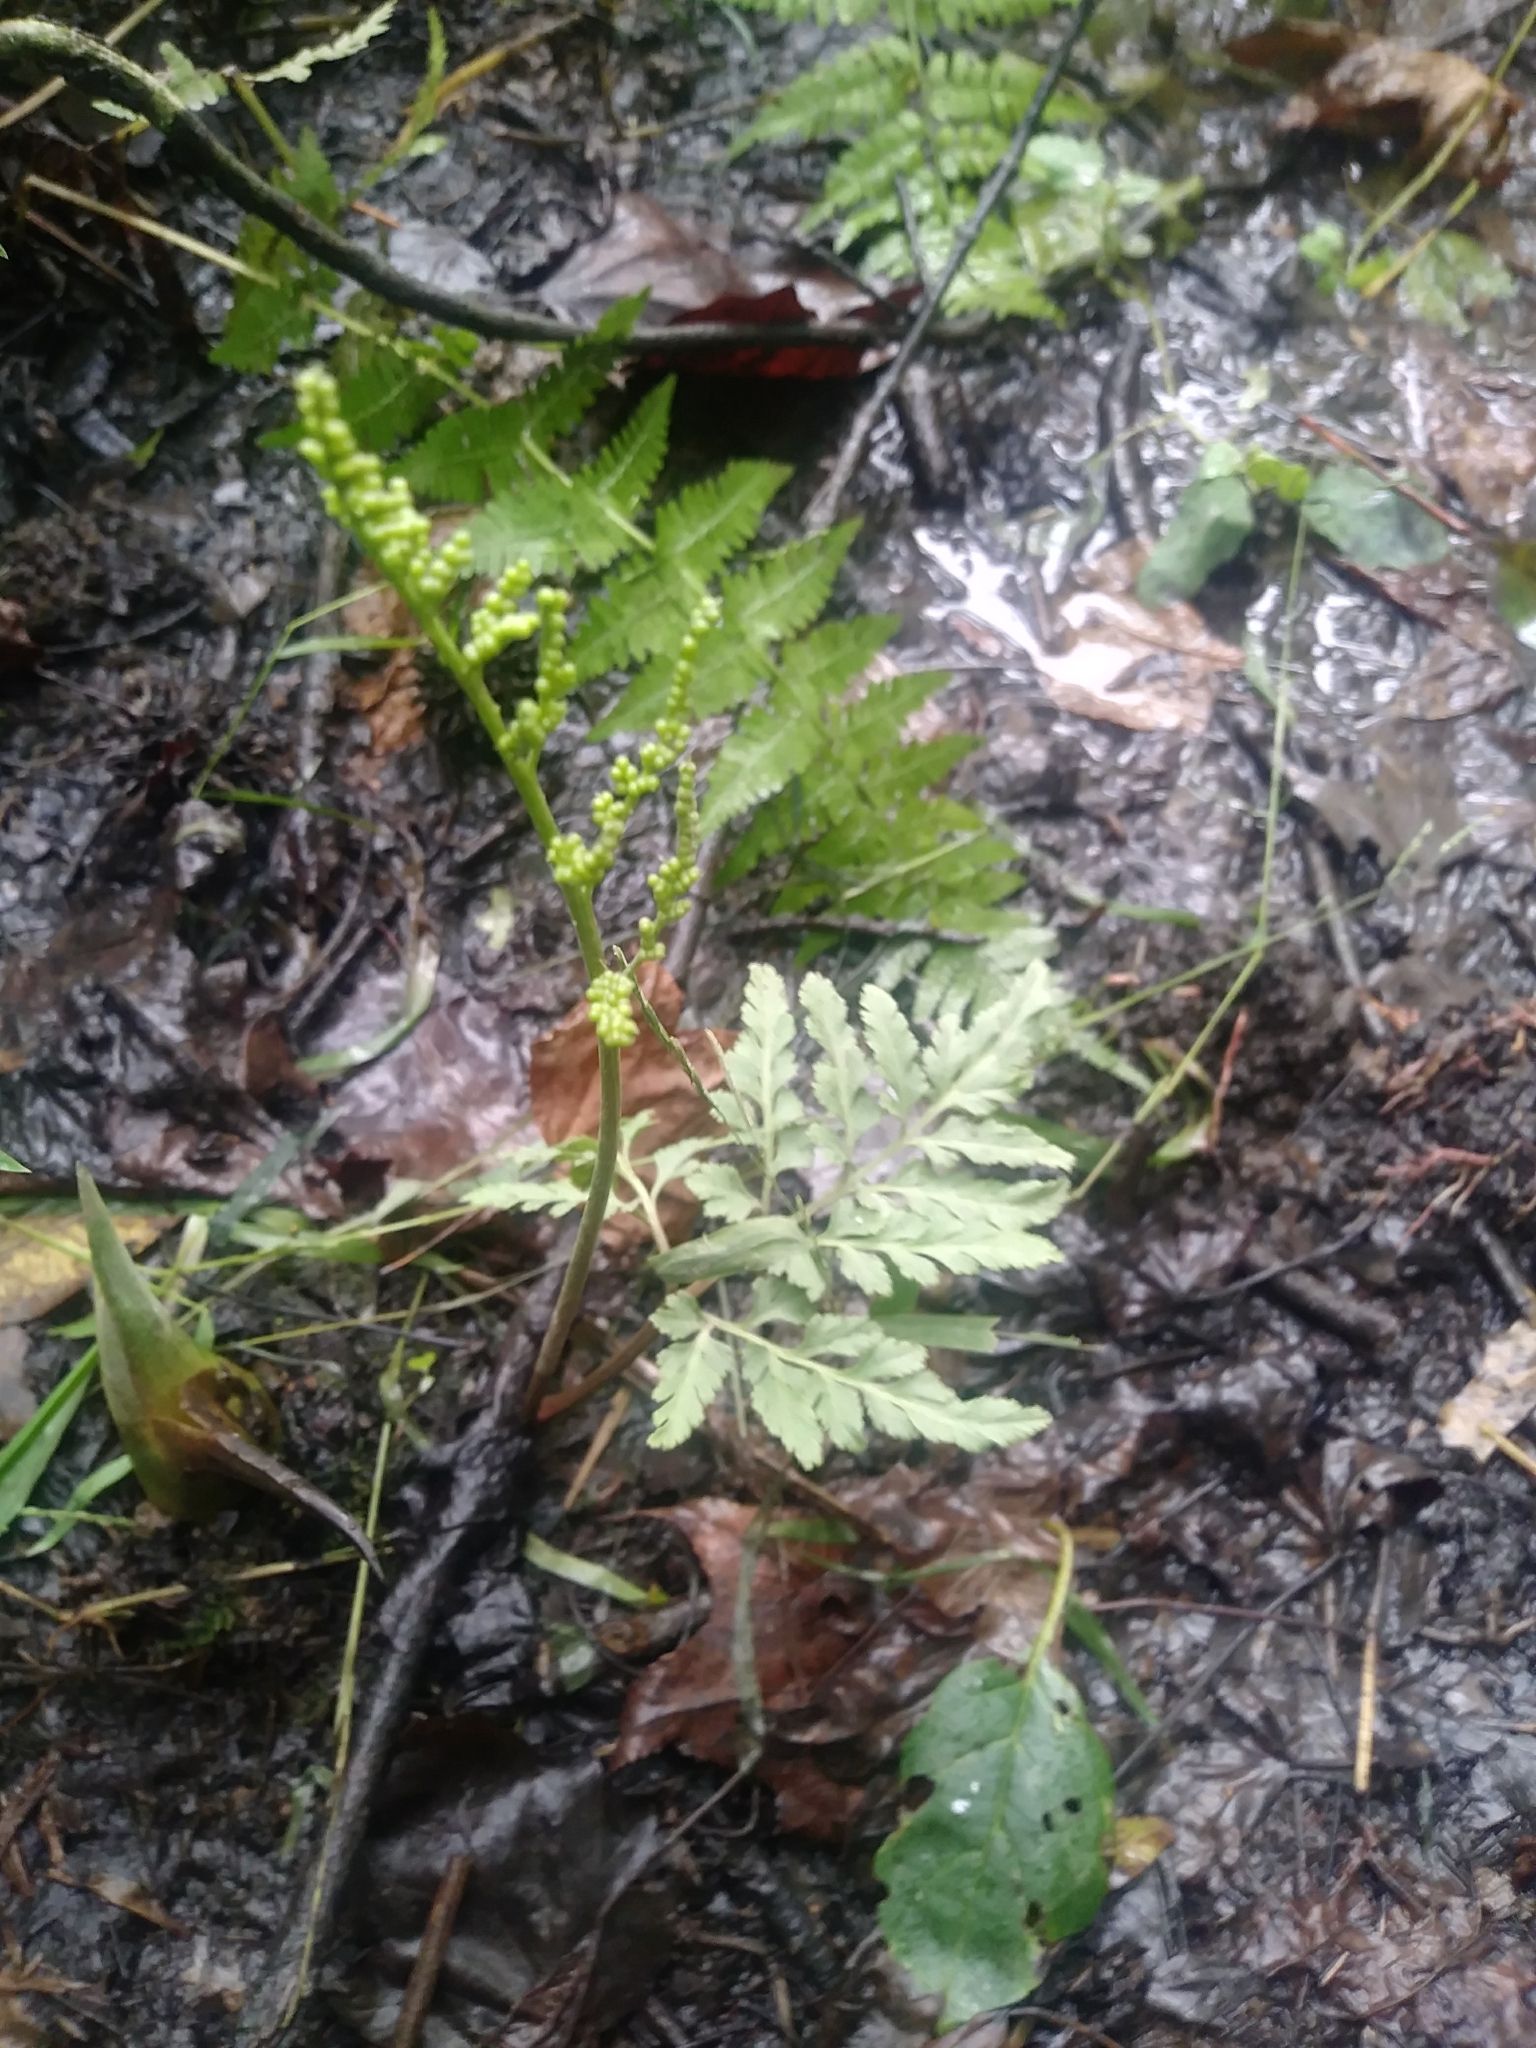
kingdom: Plantae
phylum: Tracheophyta
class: Polypodiopsida
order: Ophioglossales
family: Ophioglossaceae
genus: Sceptridium
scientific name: Sceptridium dissectum
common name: Cut-leaved grapefern
